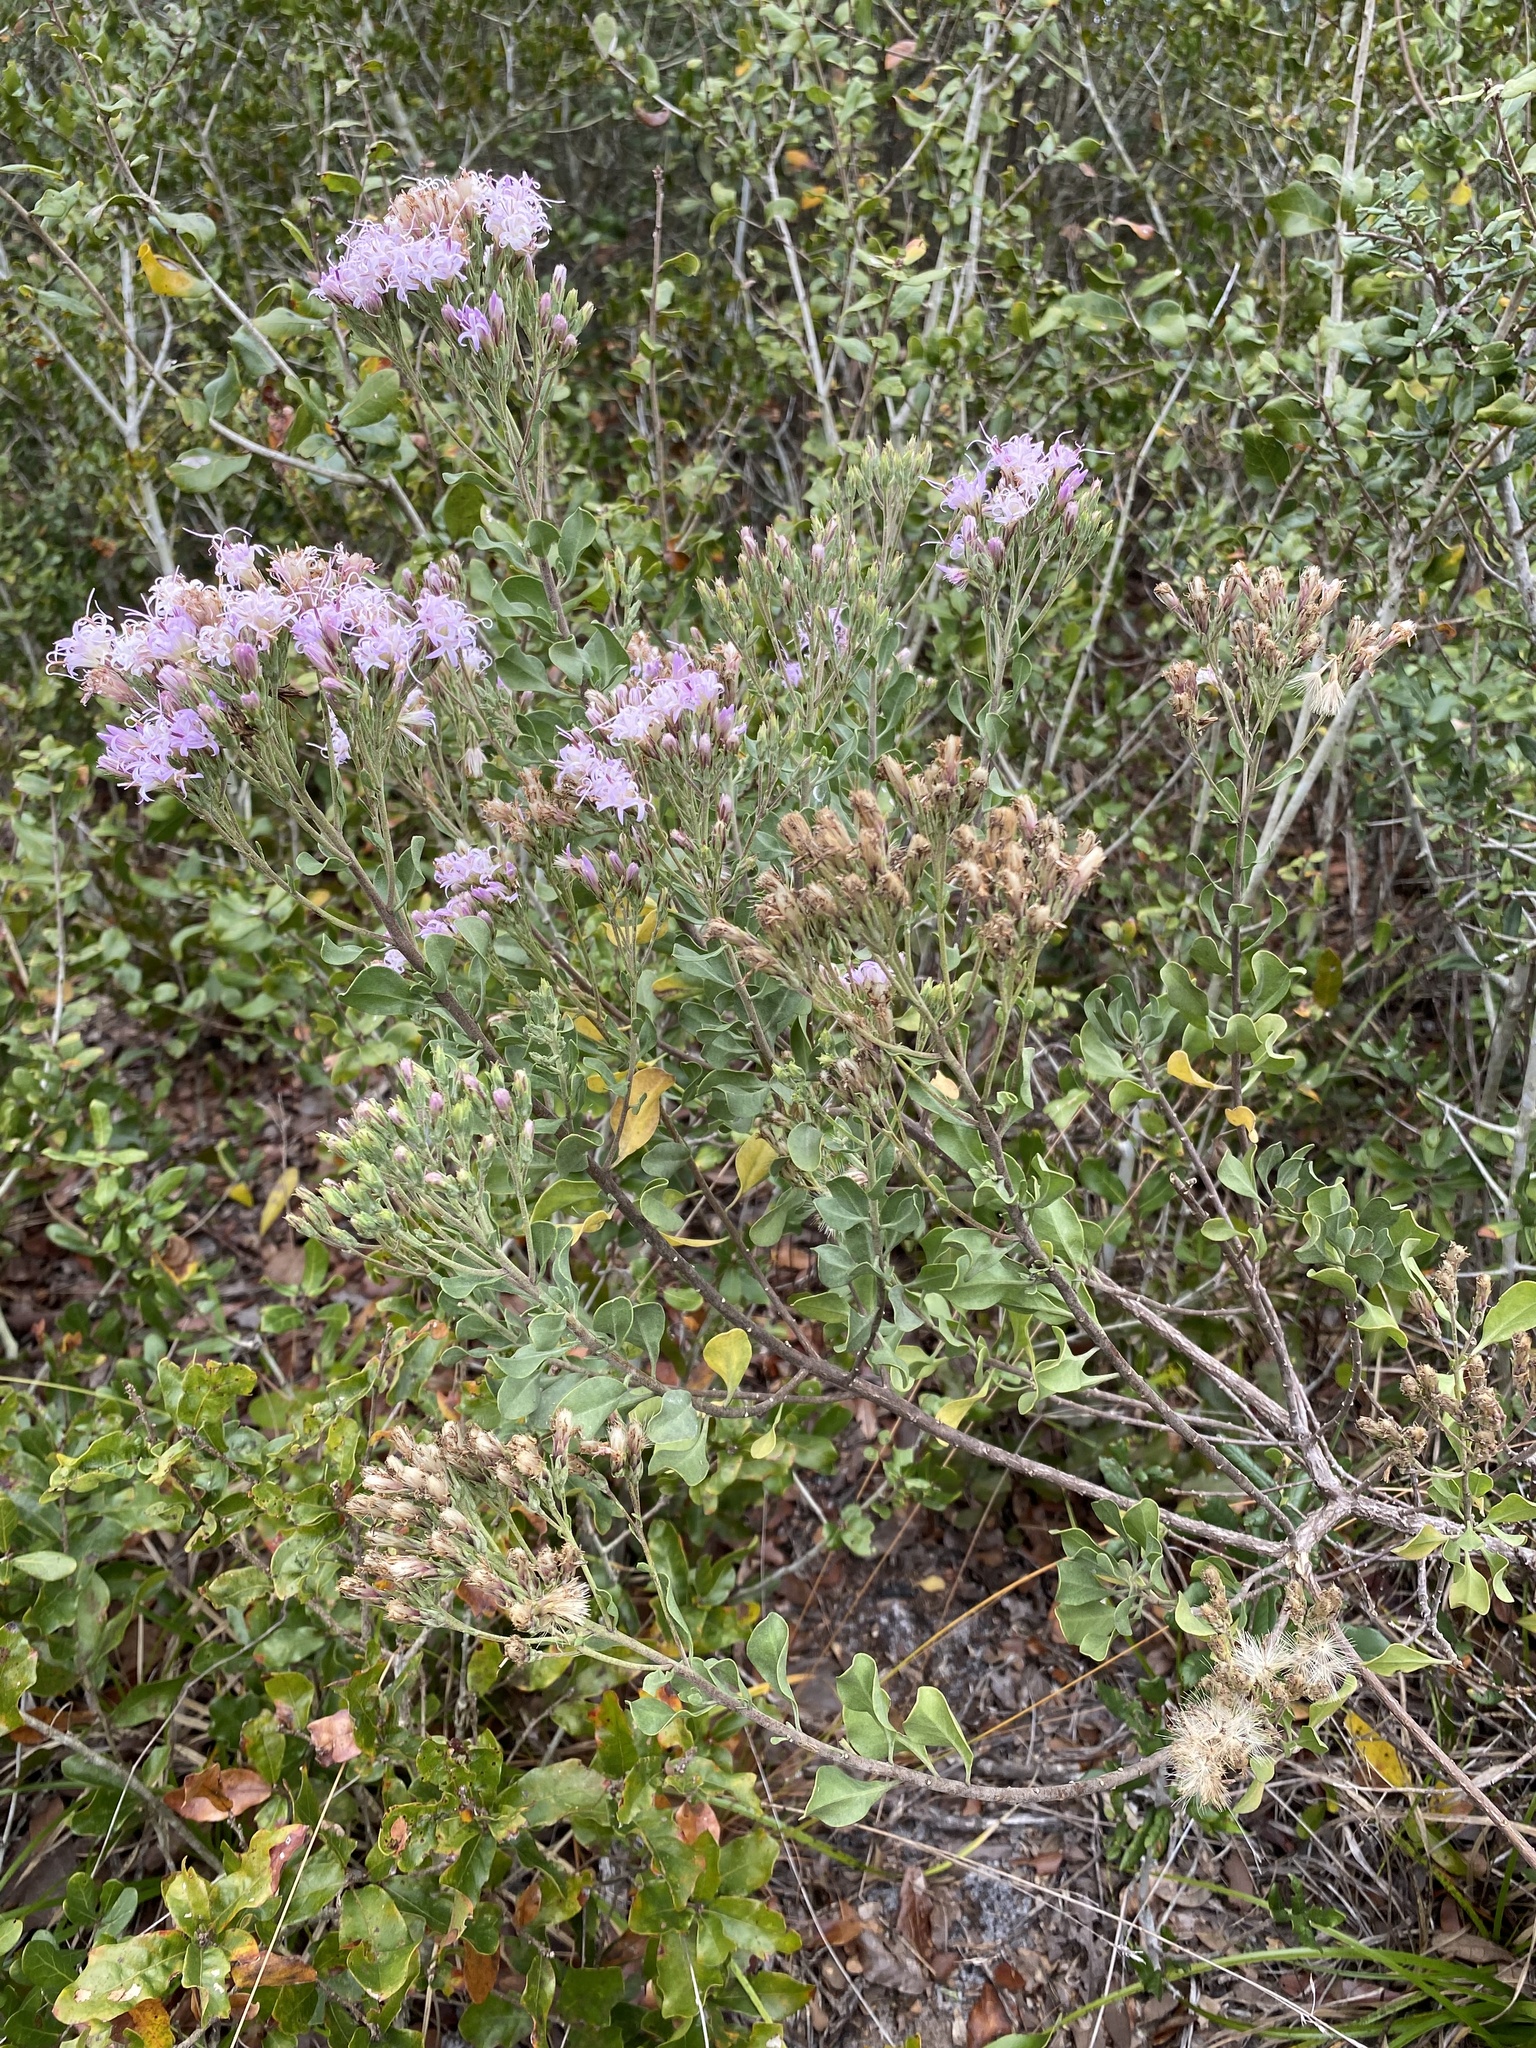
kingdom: Plantae
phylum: Tracheophyta
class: Magnoliopsida
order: Asterales
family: Asteraceae
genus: Garberia
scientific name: Garberia heterophylla
